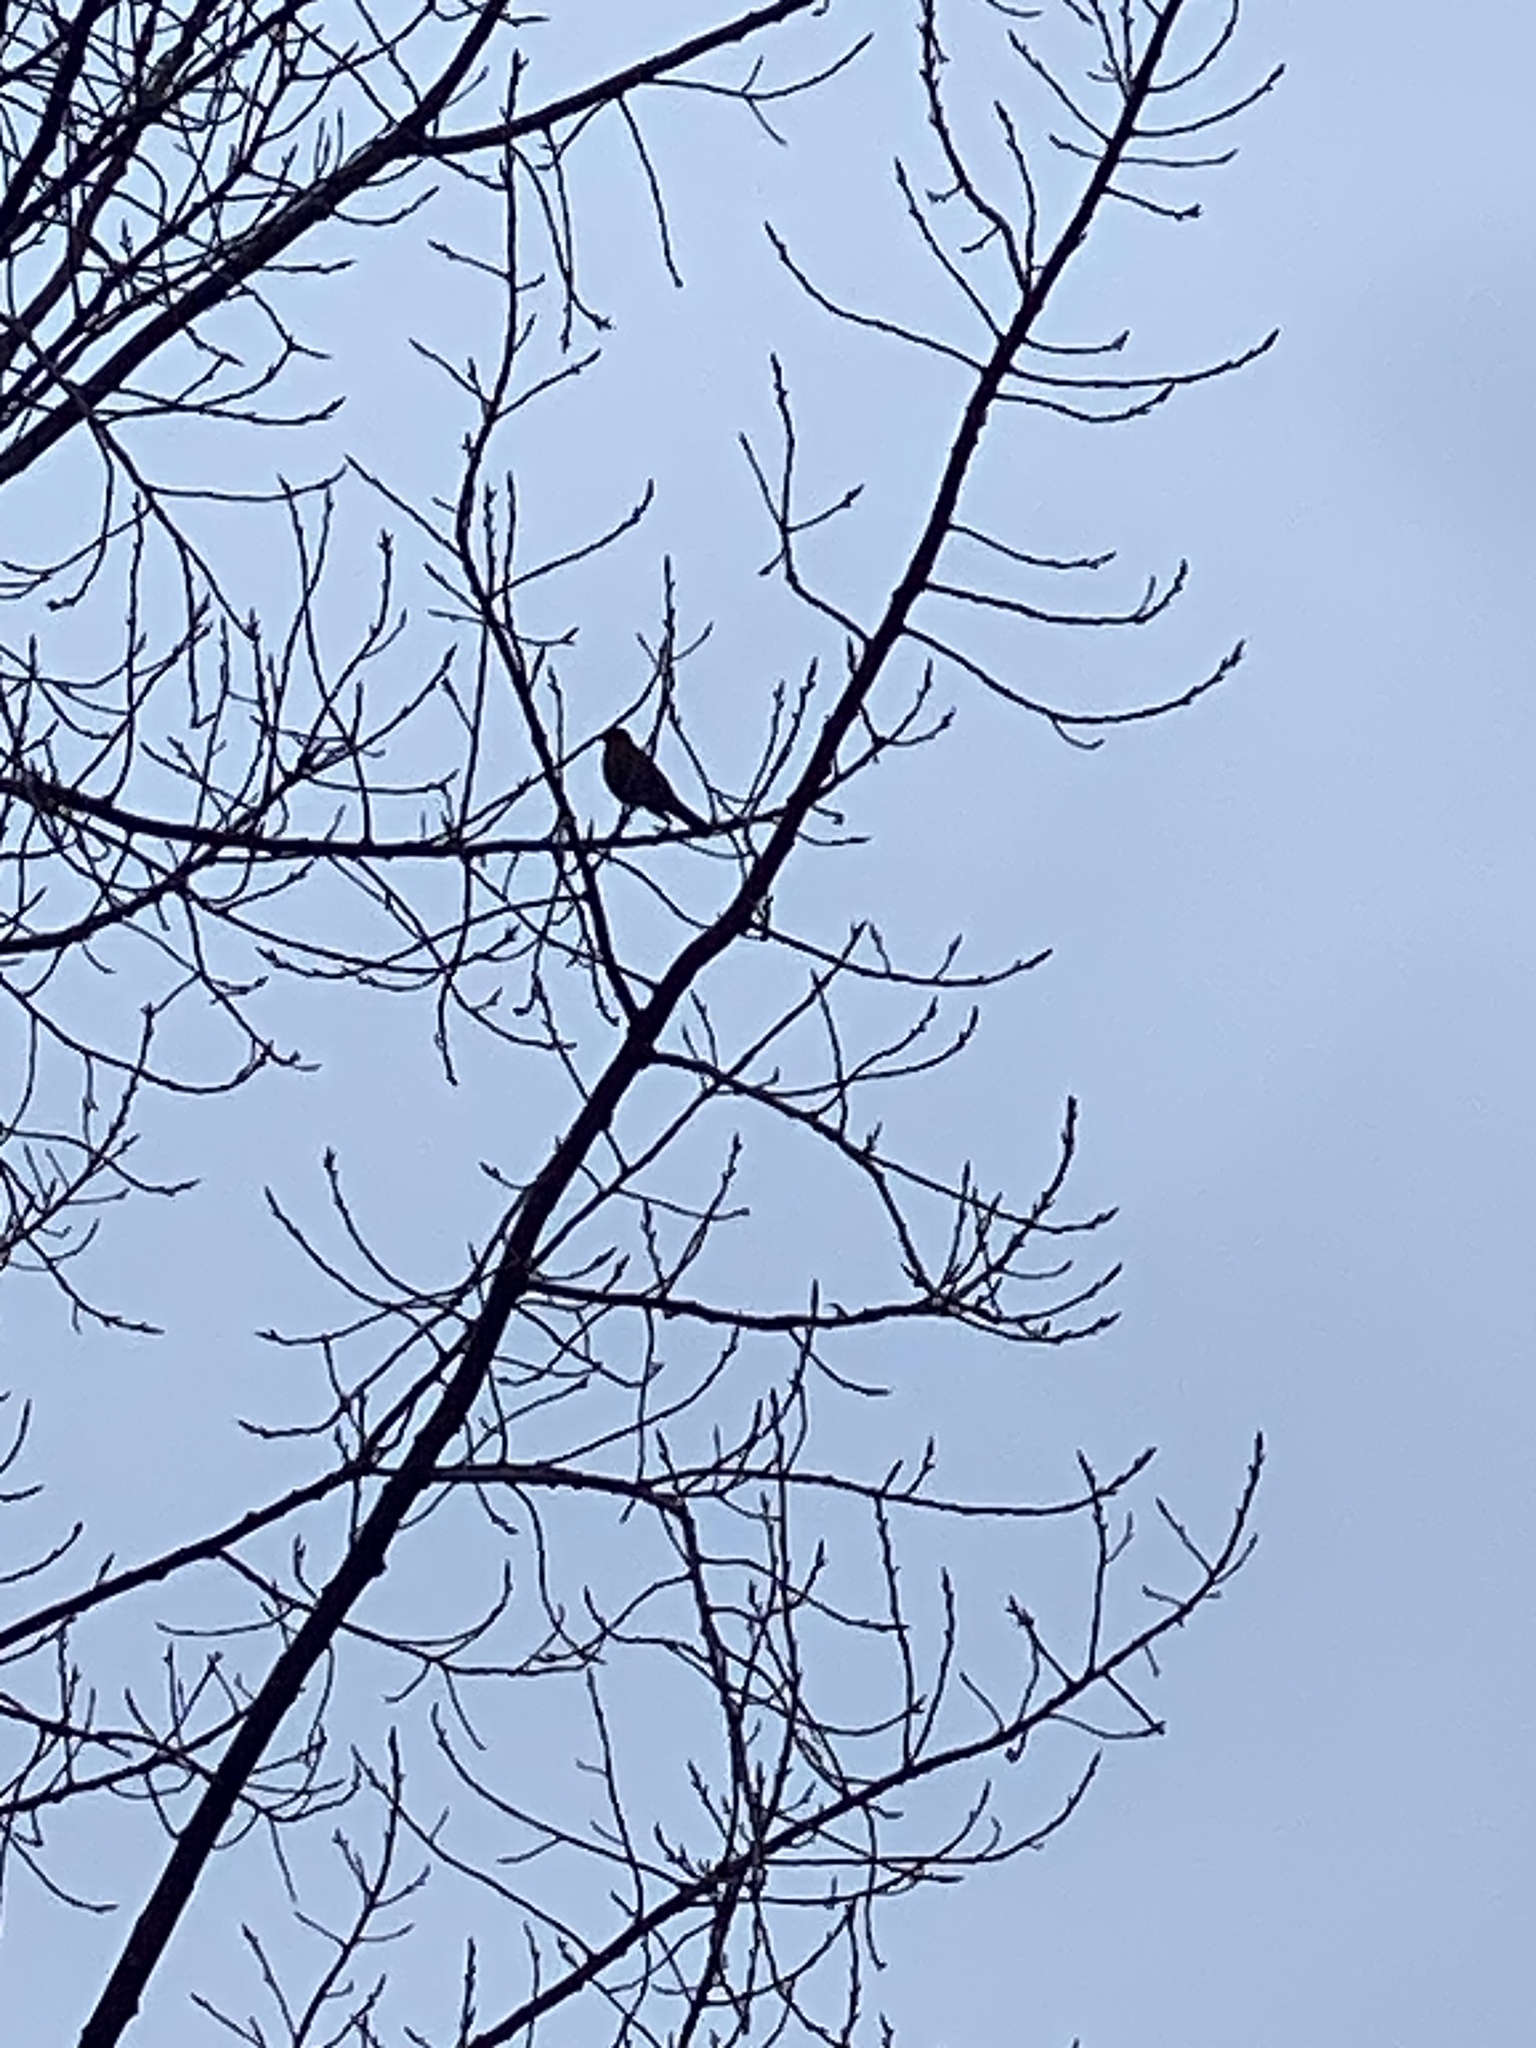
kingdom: Animalia
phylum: Chordata
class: Aves
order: Passeriformes
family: Turdidae
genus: Turdus
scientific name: Turdus migratorius
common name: American robin
